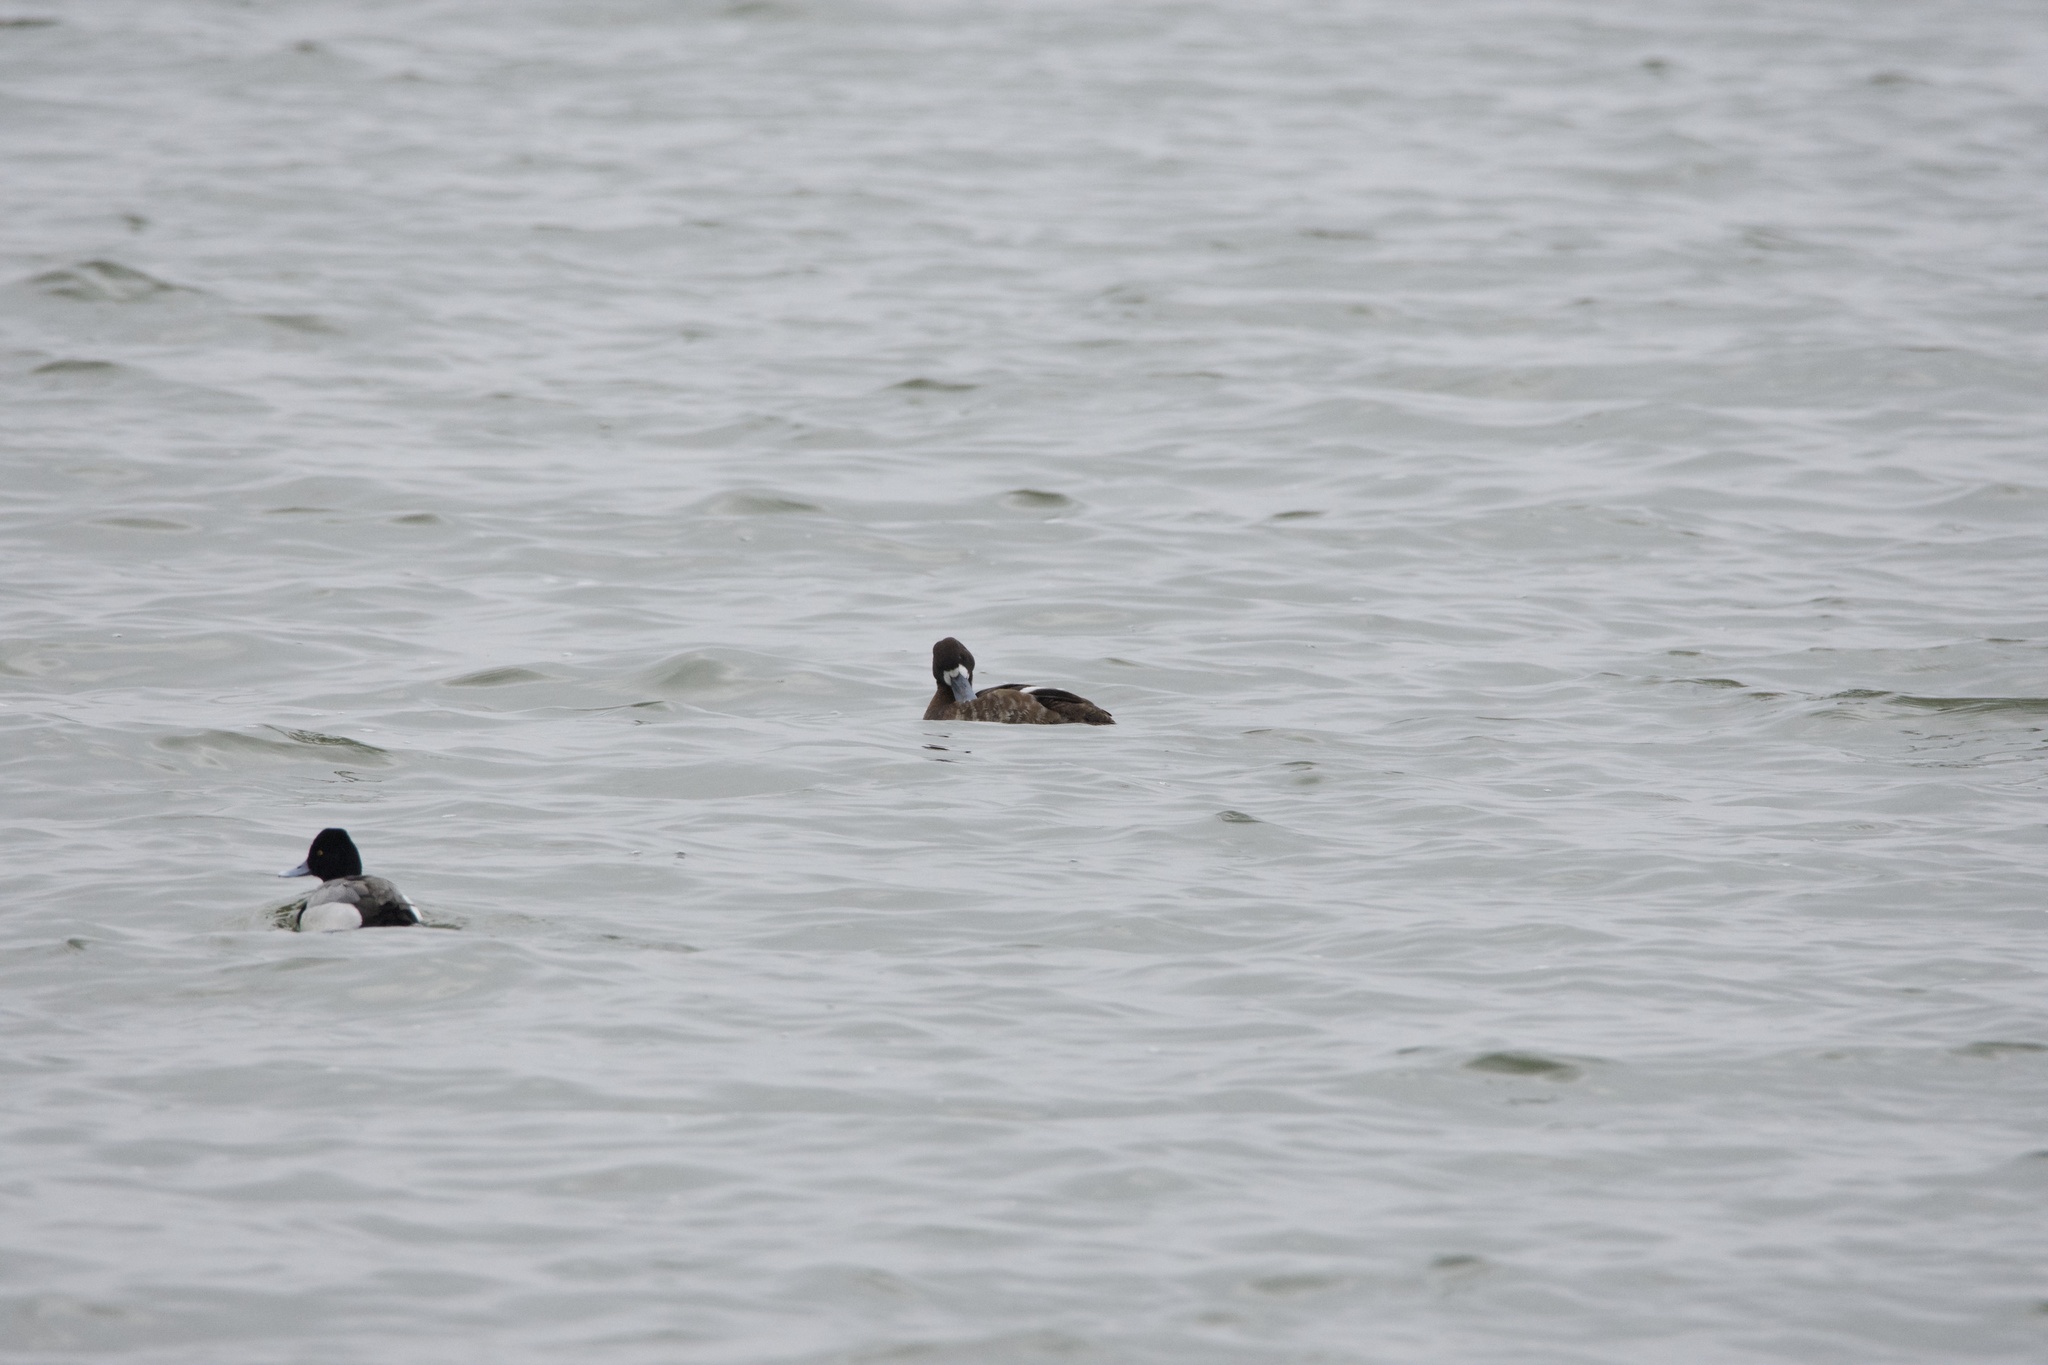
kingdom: Animalia
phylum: Chordata
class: Aves
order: Anseriformes
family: Anatidae
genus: Aythya
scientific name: Aythya affinis
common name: Lesser scaup
